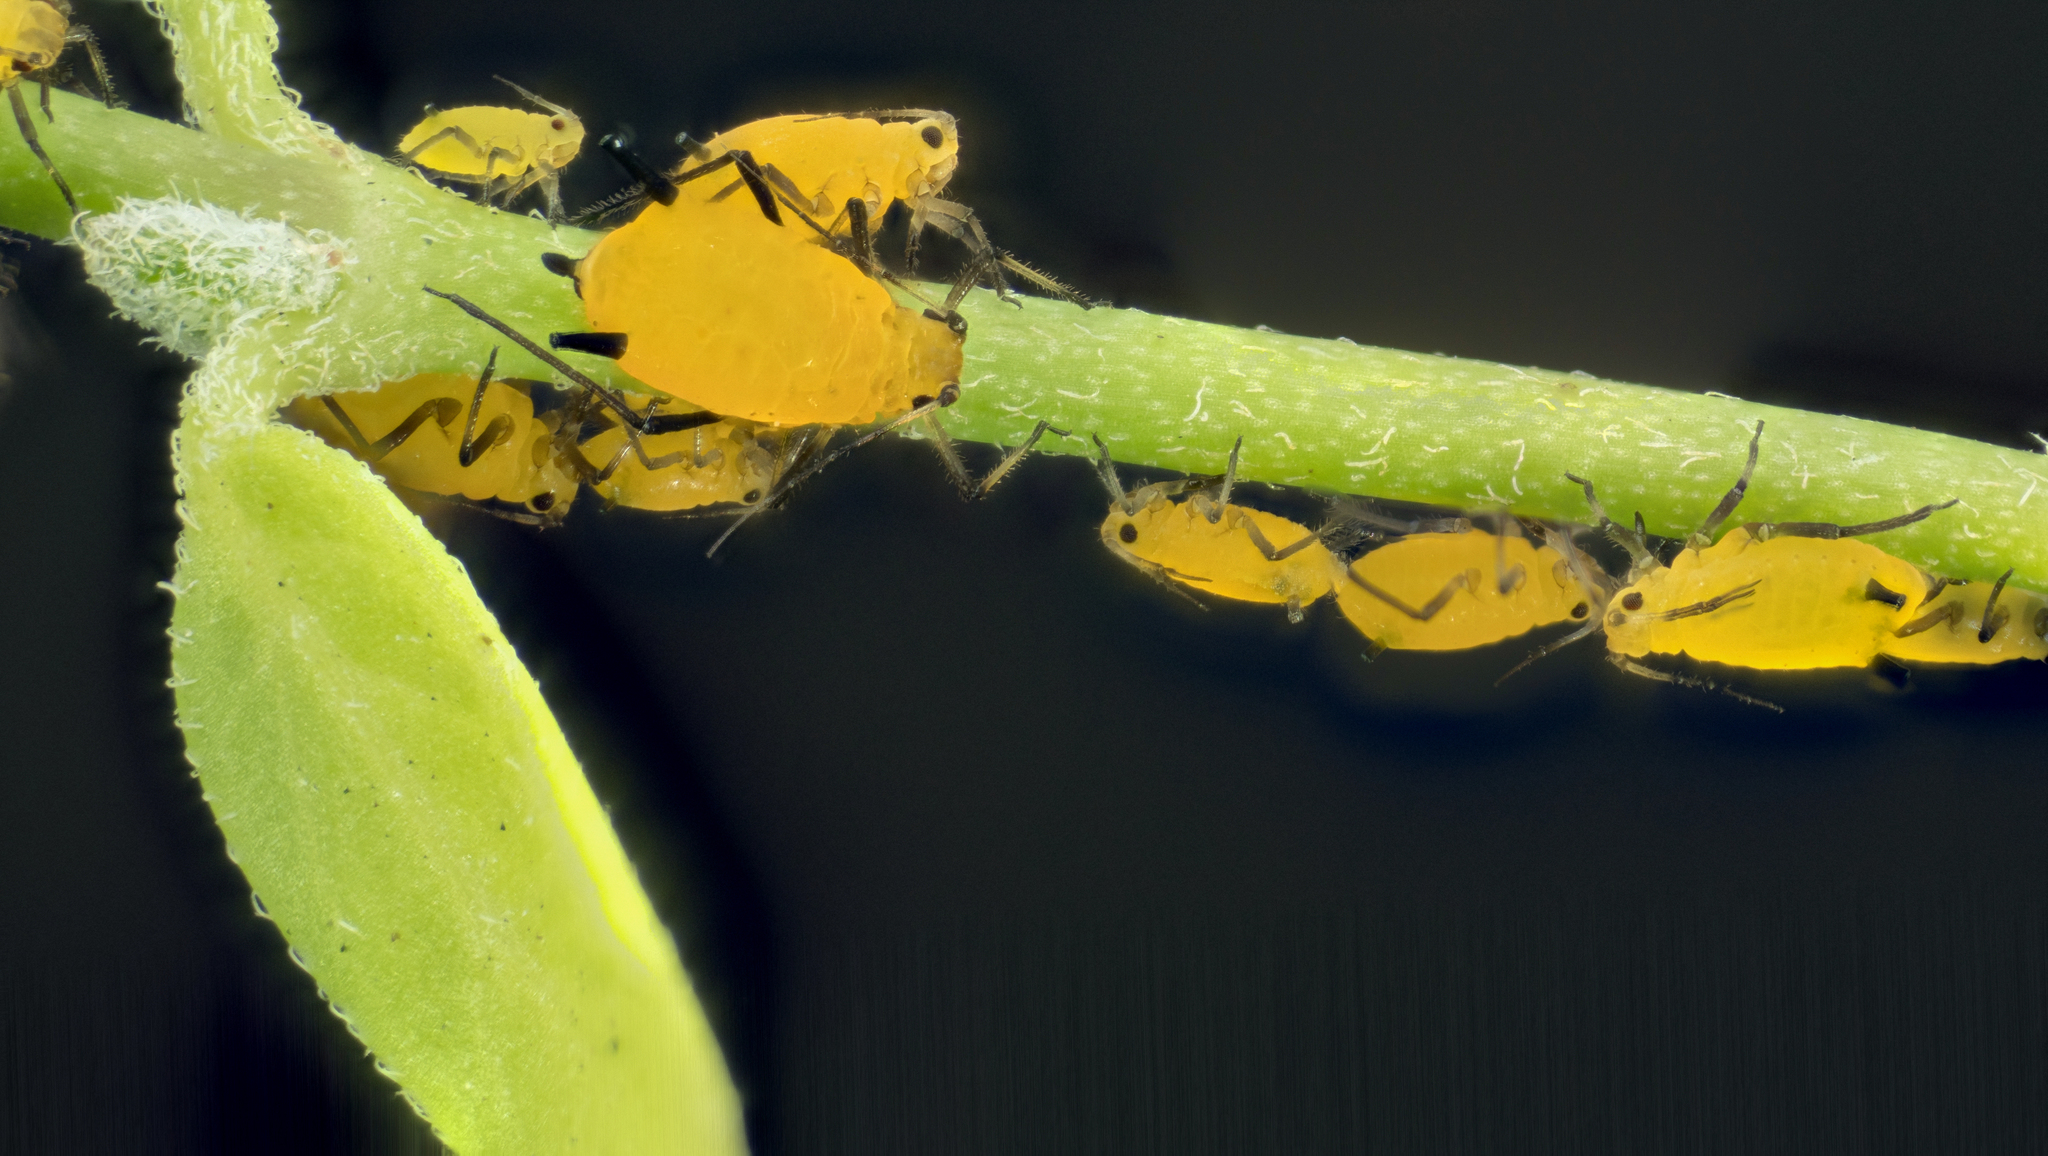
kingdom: Animalia
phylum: Arthropoda
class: Insecta
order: Hemiptera
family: Aphididae
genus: Aphis
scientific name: Aphis nerii
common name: Oleander aphid
